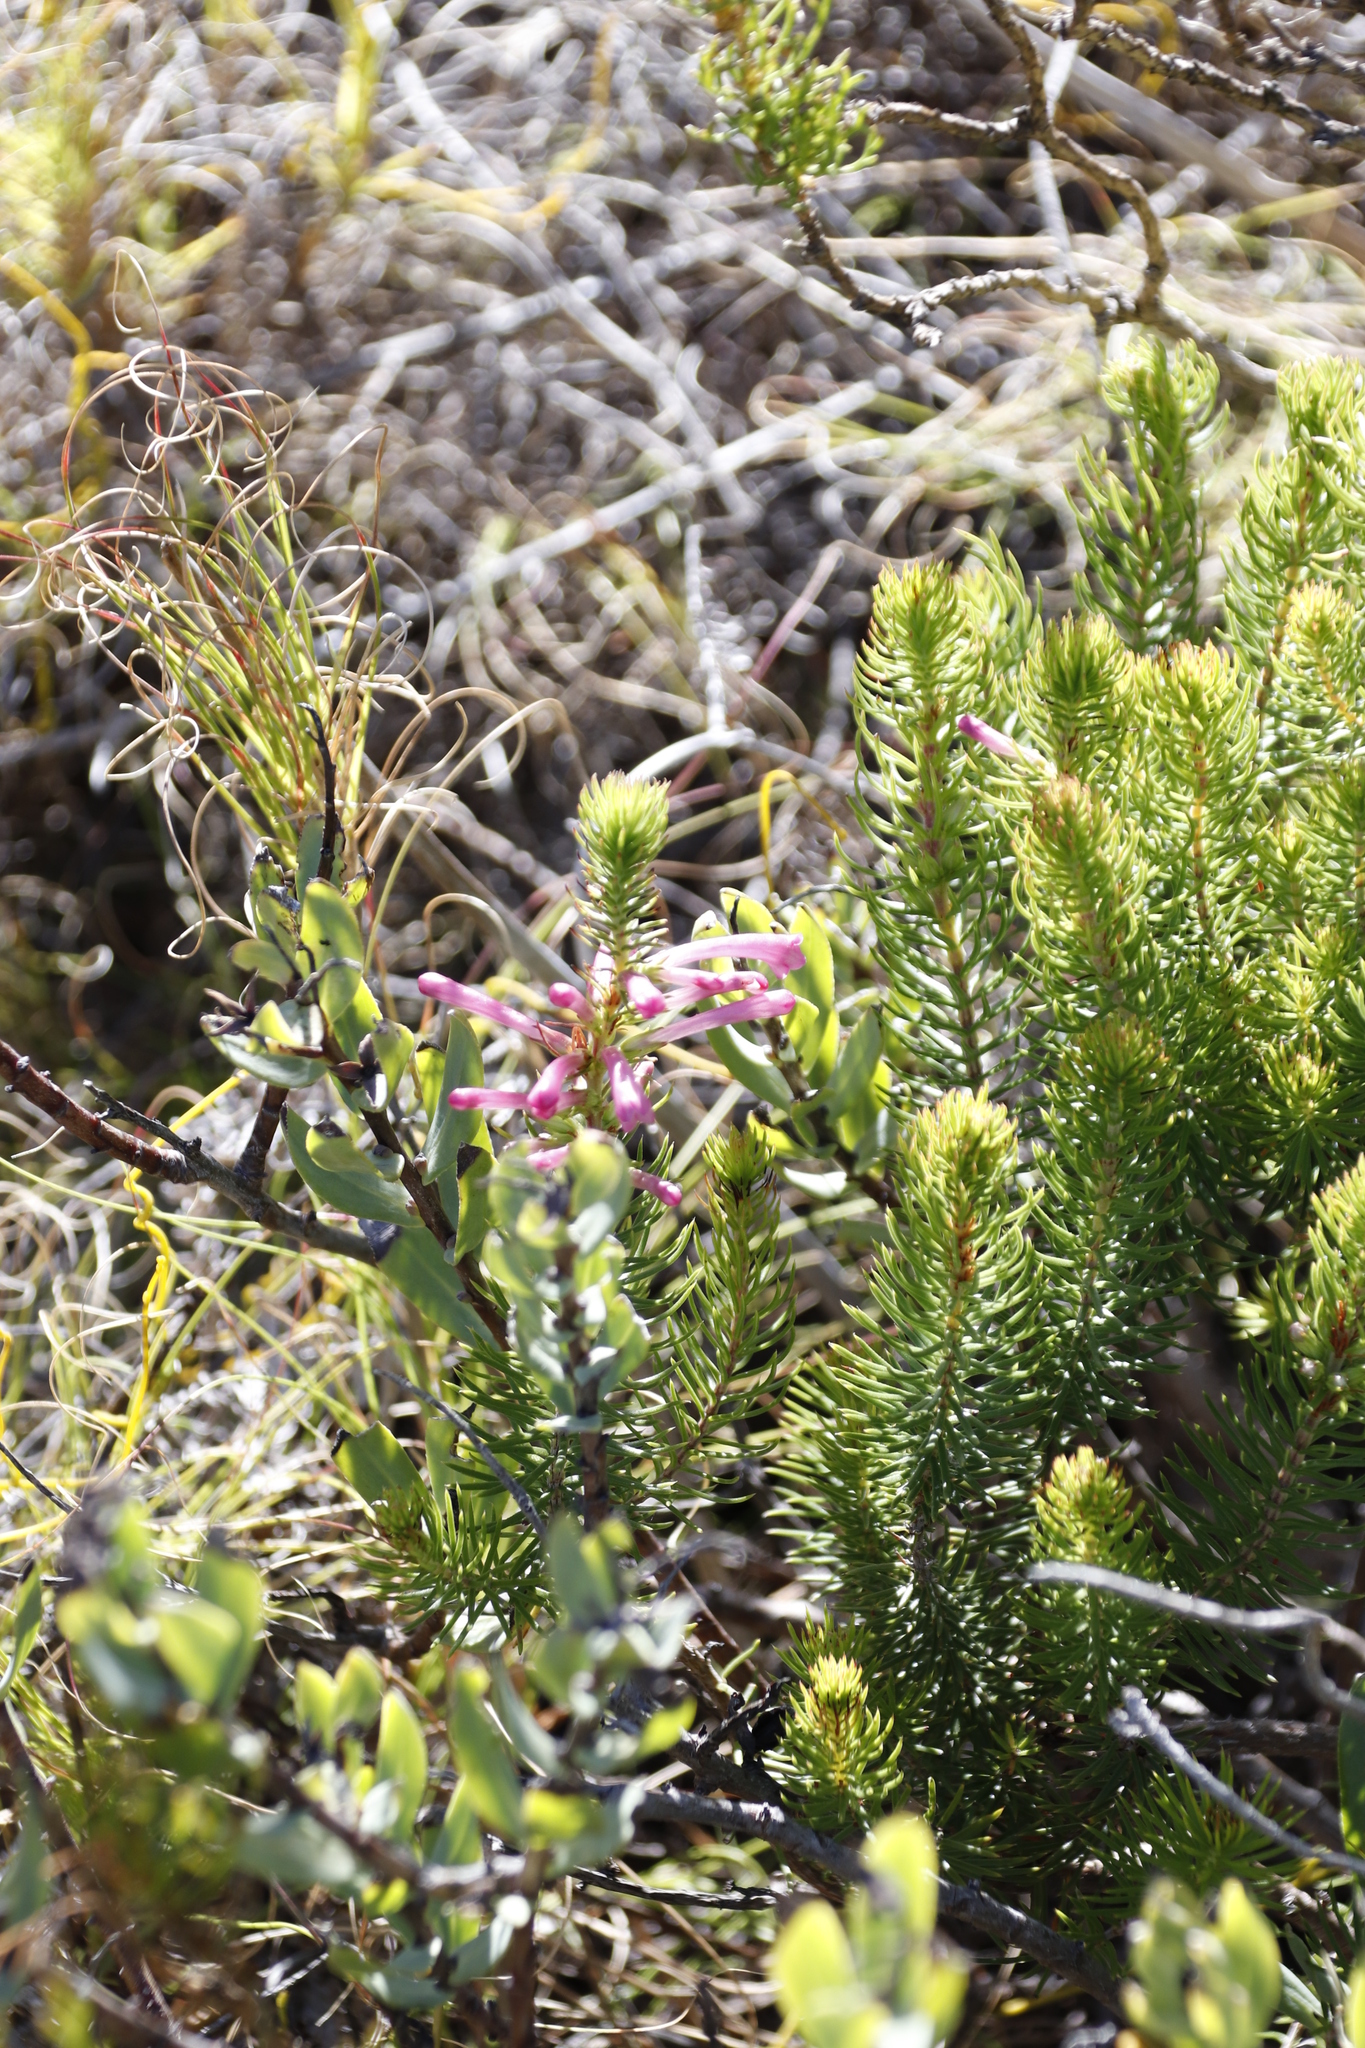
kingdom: Plantae
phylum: Tracheophyta
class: Magnoliopsida
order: Ericales
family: Ericaceae
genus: Erica
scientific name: Erica abietina
